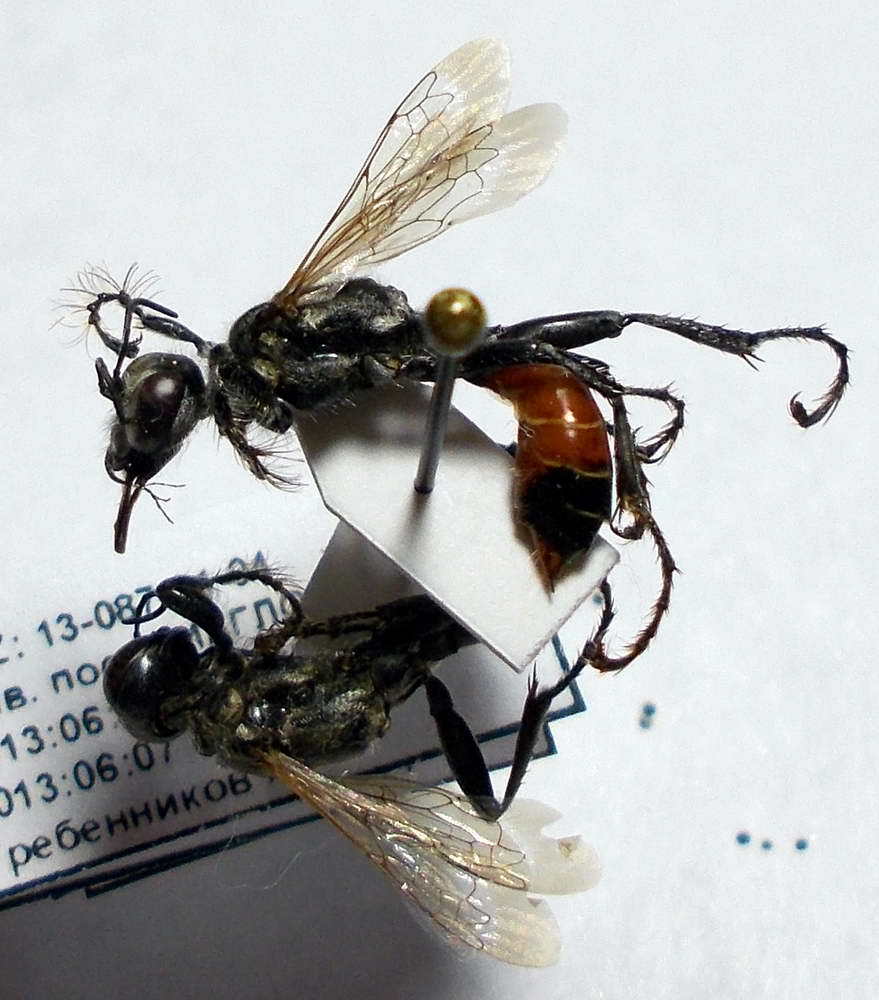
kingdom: Animalia
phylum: Arthropoda
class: Insecta
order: Hymenoptera
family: Sphecidae
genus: Prionyx
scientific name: Prionyx kirbii
